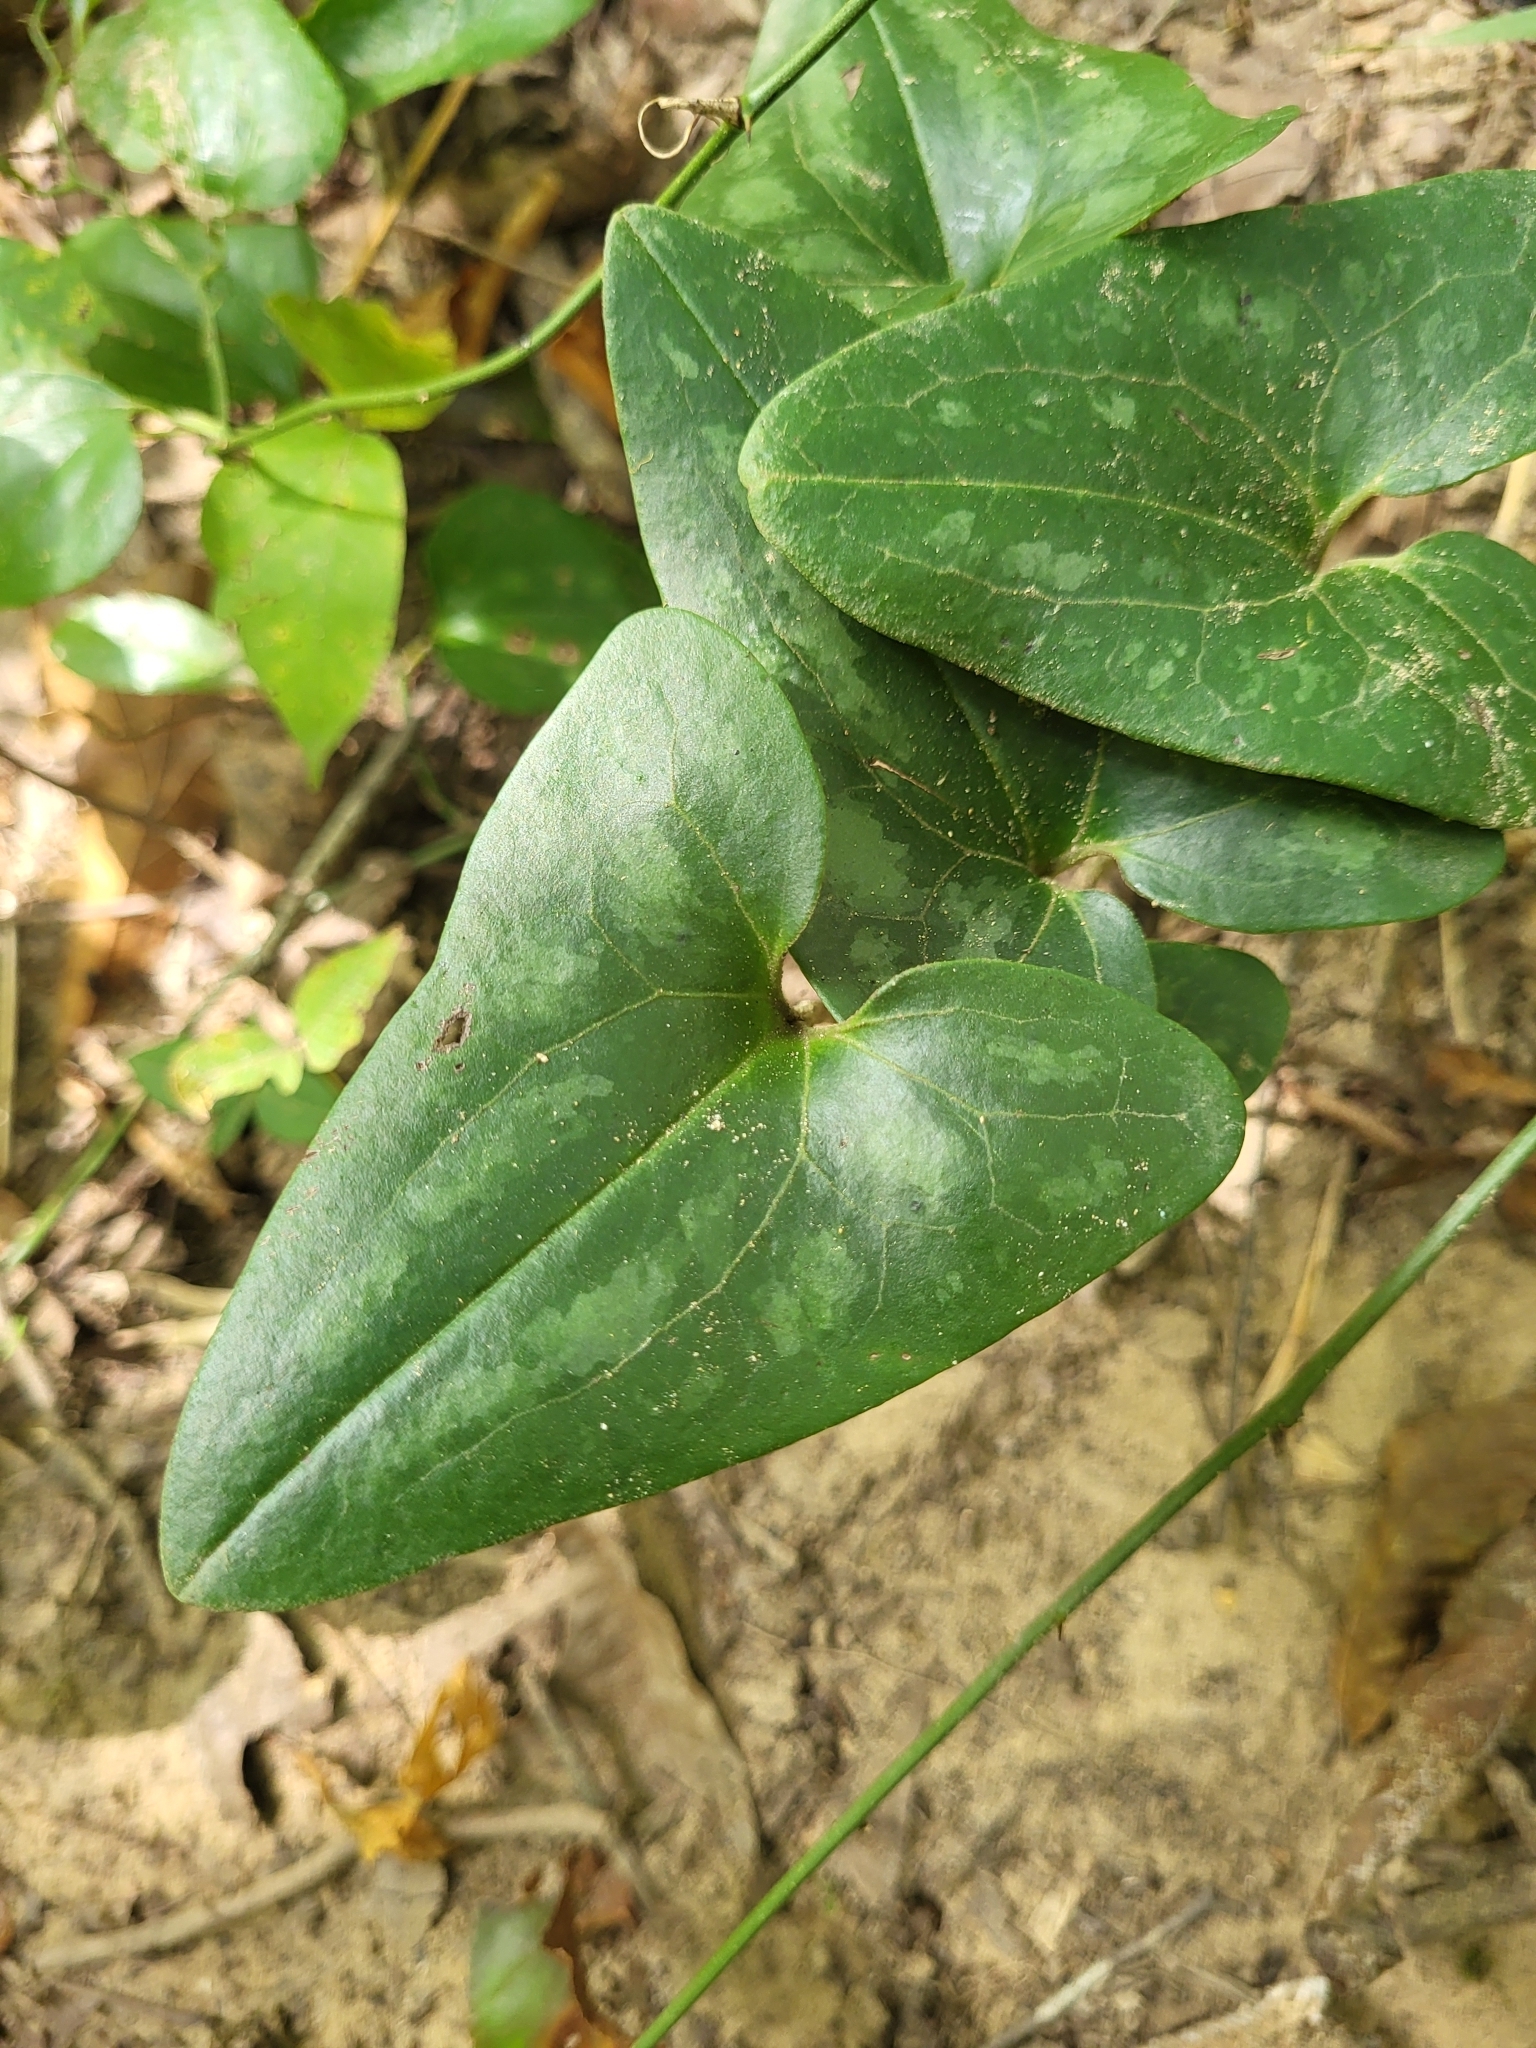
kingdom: Plantae
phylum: Tracheophyta
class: Magnoliopsida
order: Piperales
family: Aristolochiaceae
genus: Hexastylis
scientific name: Hexastylis arifolia
